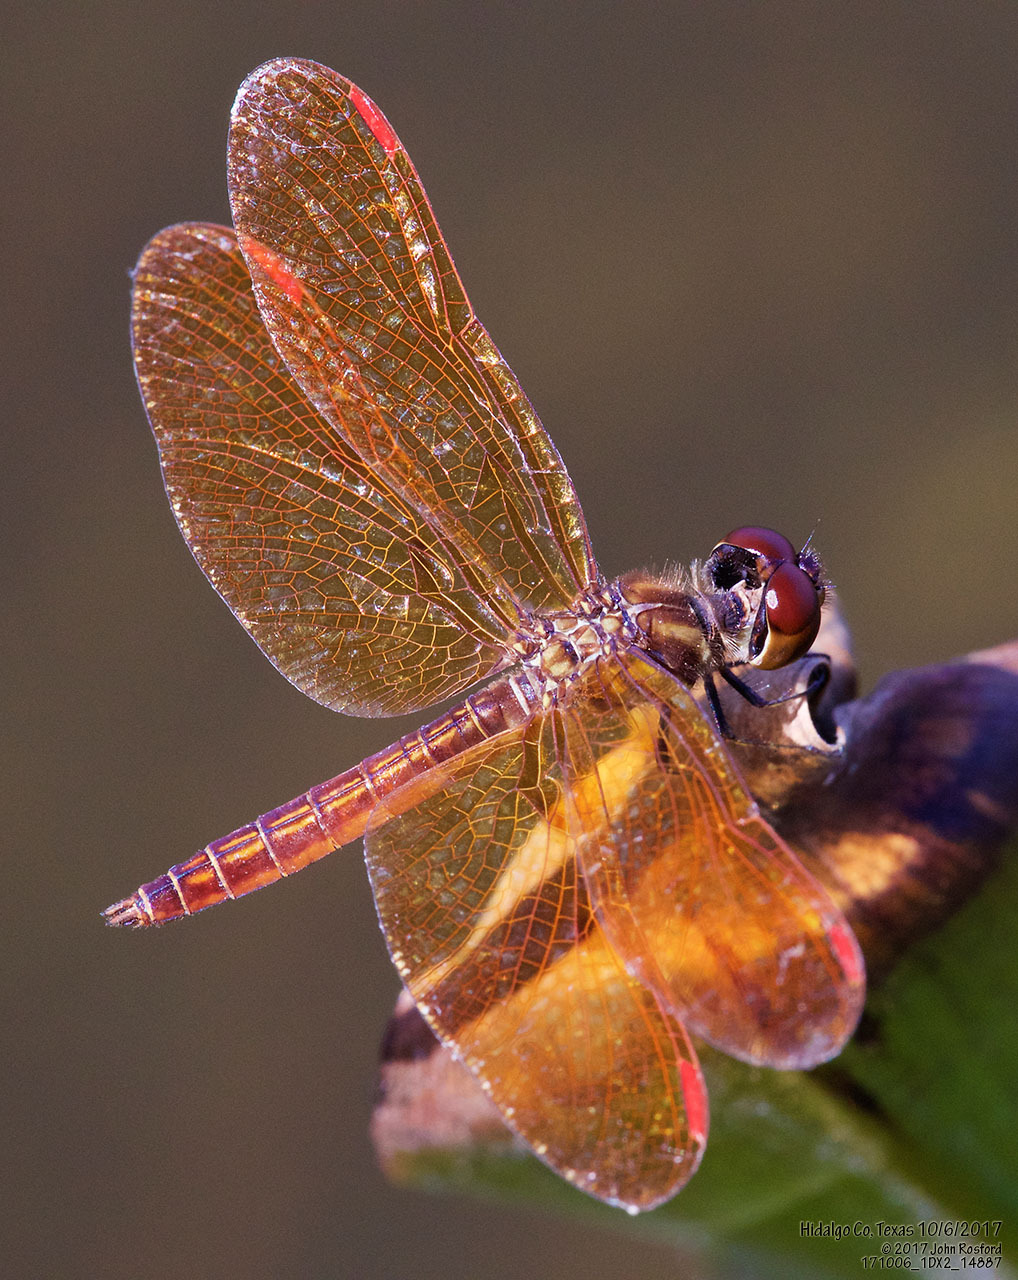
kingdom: Animalia
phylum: Arthropoda
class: Insecta
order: Odonata
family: Libellulidae
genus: Perithemis
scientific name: Perithemis domitia
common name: Slough amberwing
